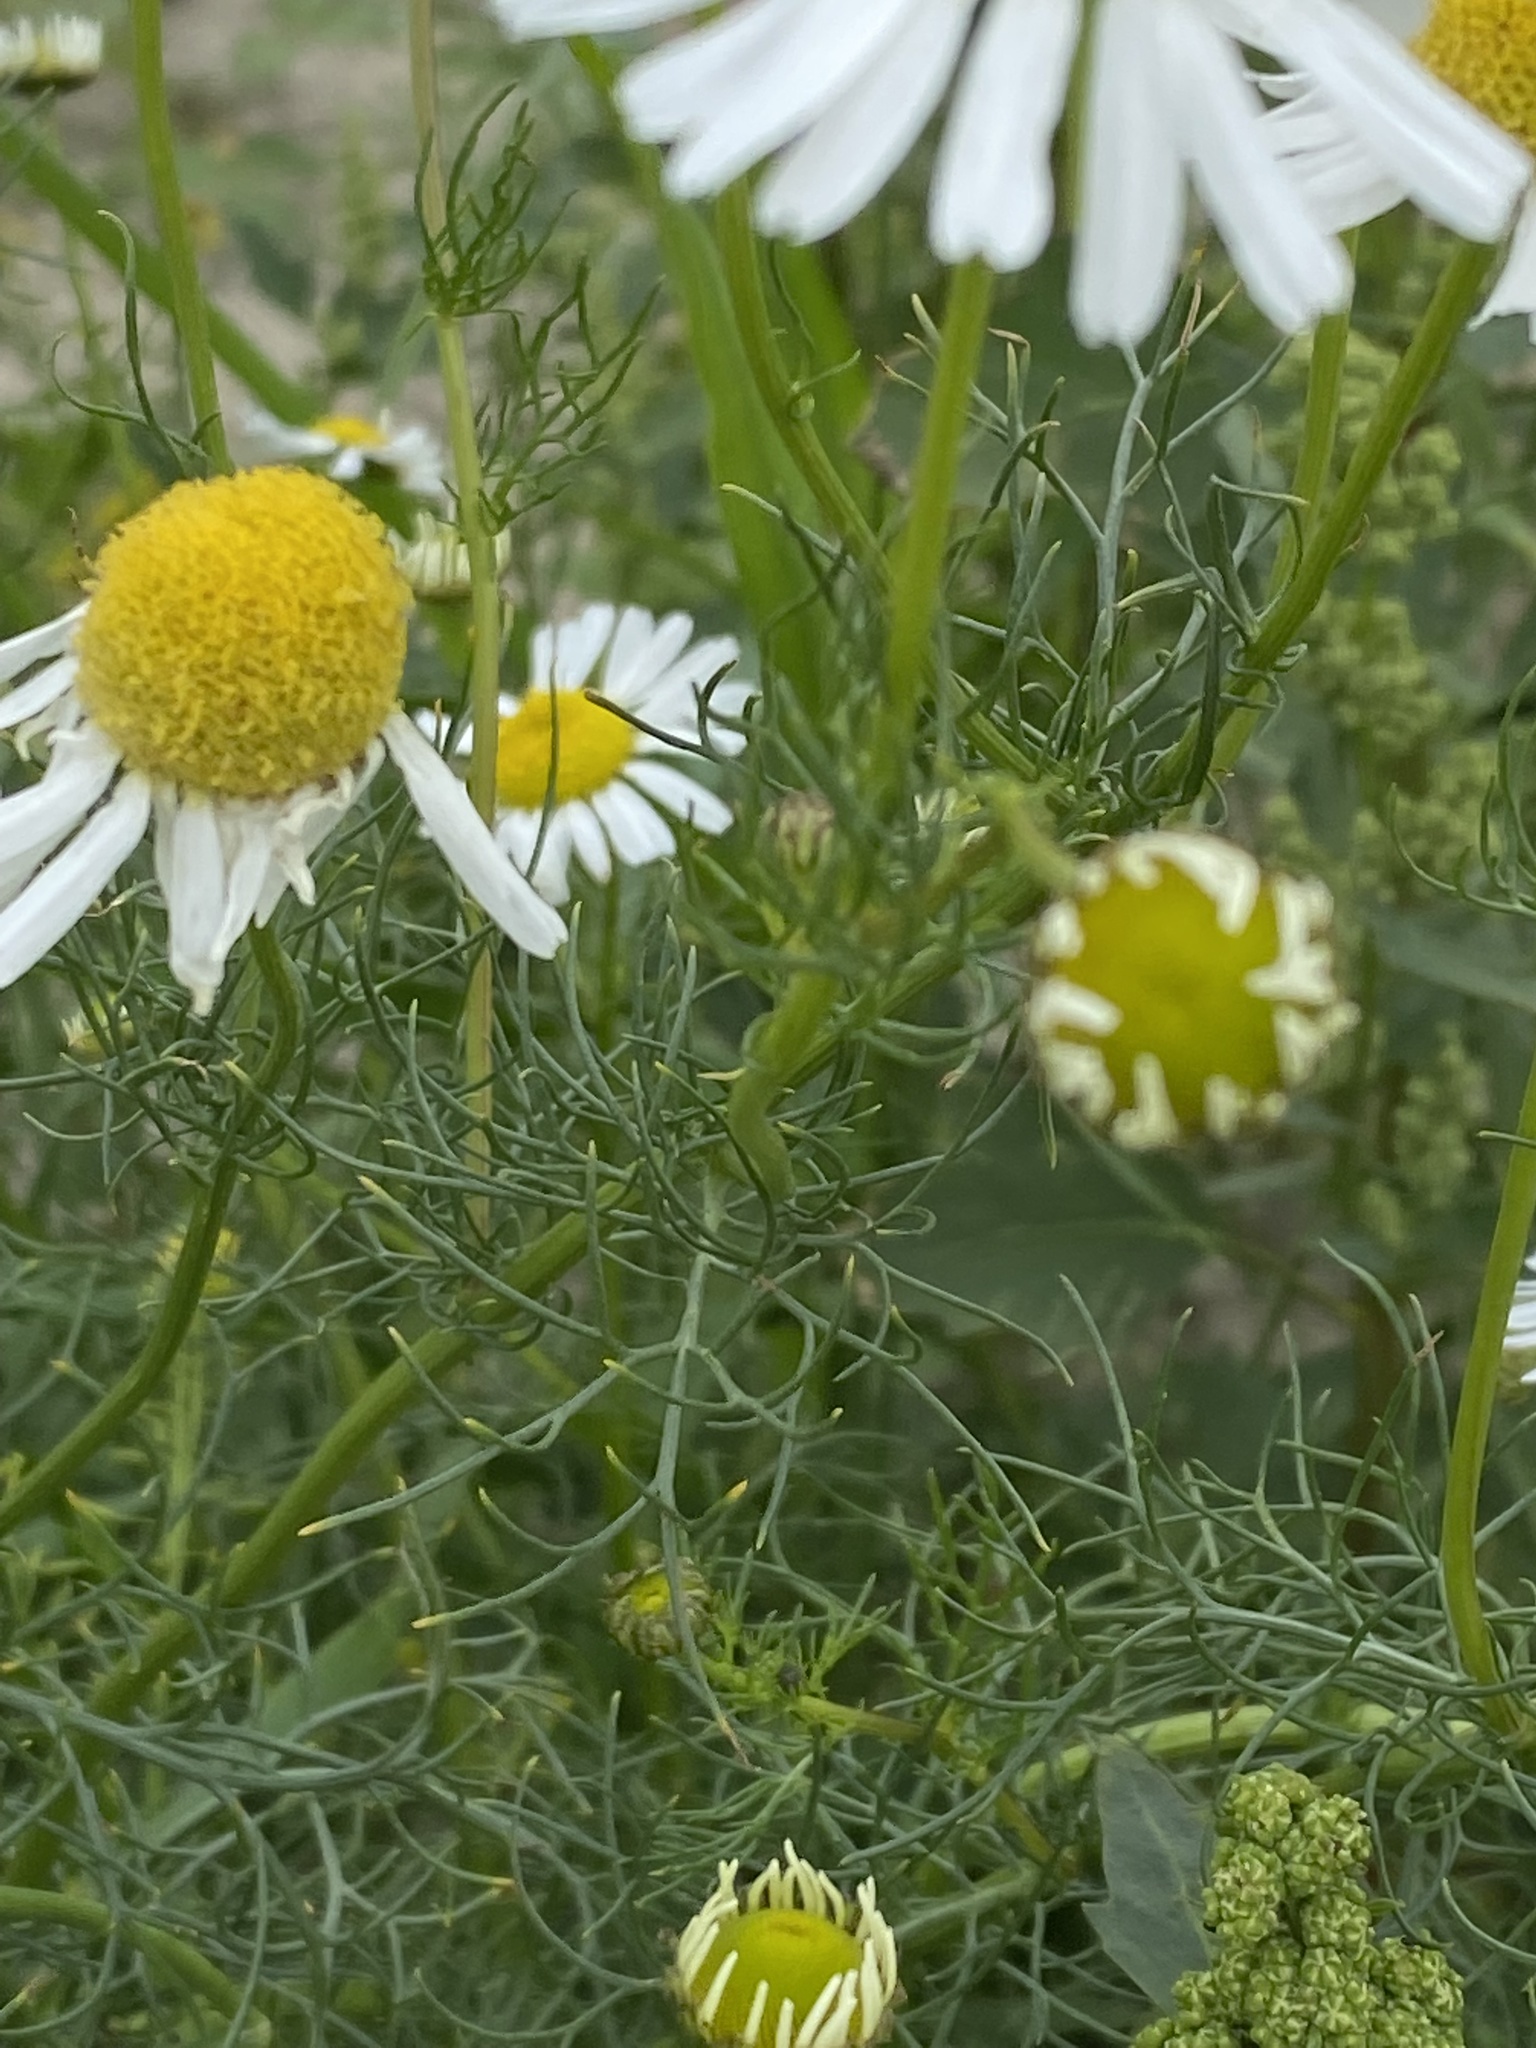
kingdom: Plantae
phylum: Tracheophyta
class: Magnoliopsida
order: Asterales
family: Asteraceae
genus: Tripleurospermum
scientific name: Tripleurospermum inodorum
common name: Scentless mayweed
